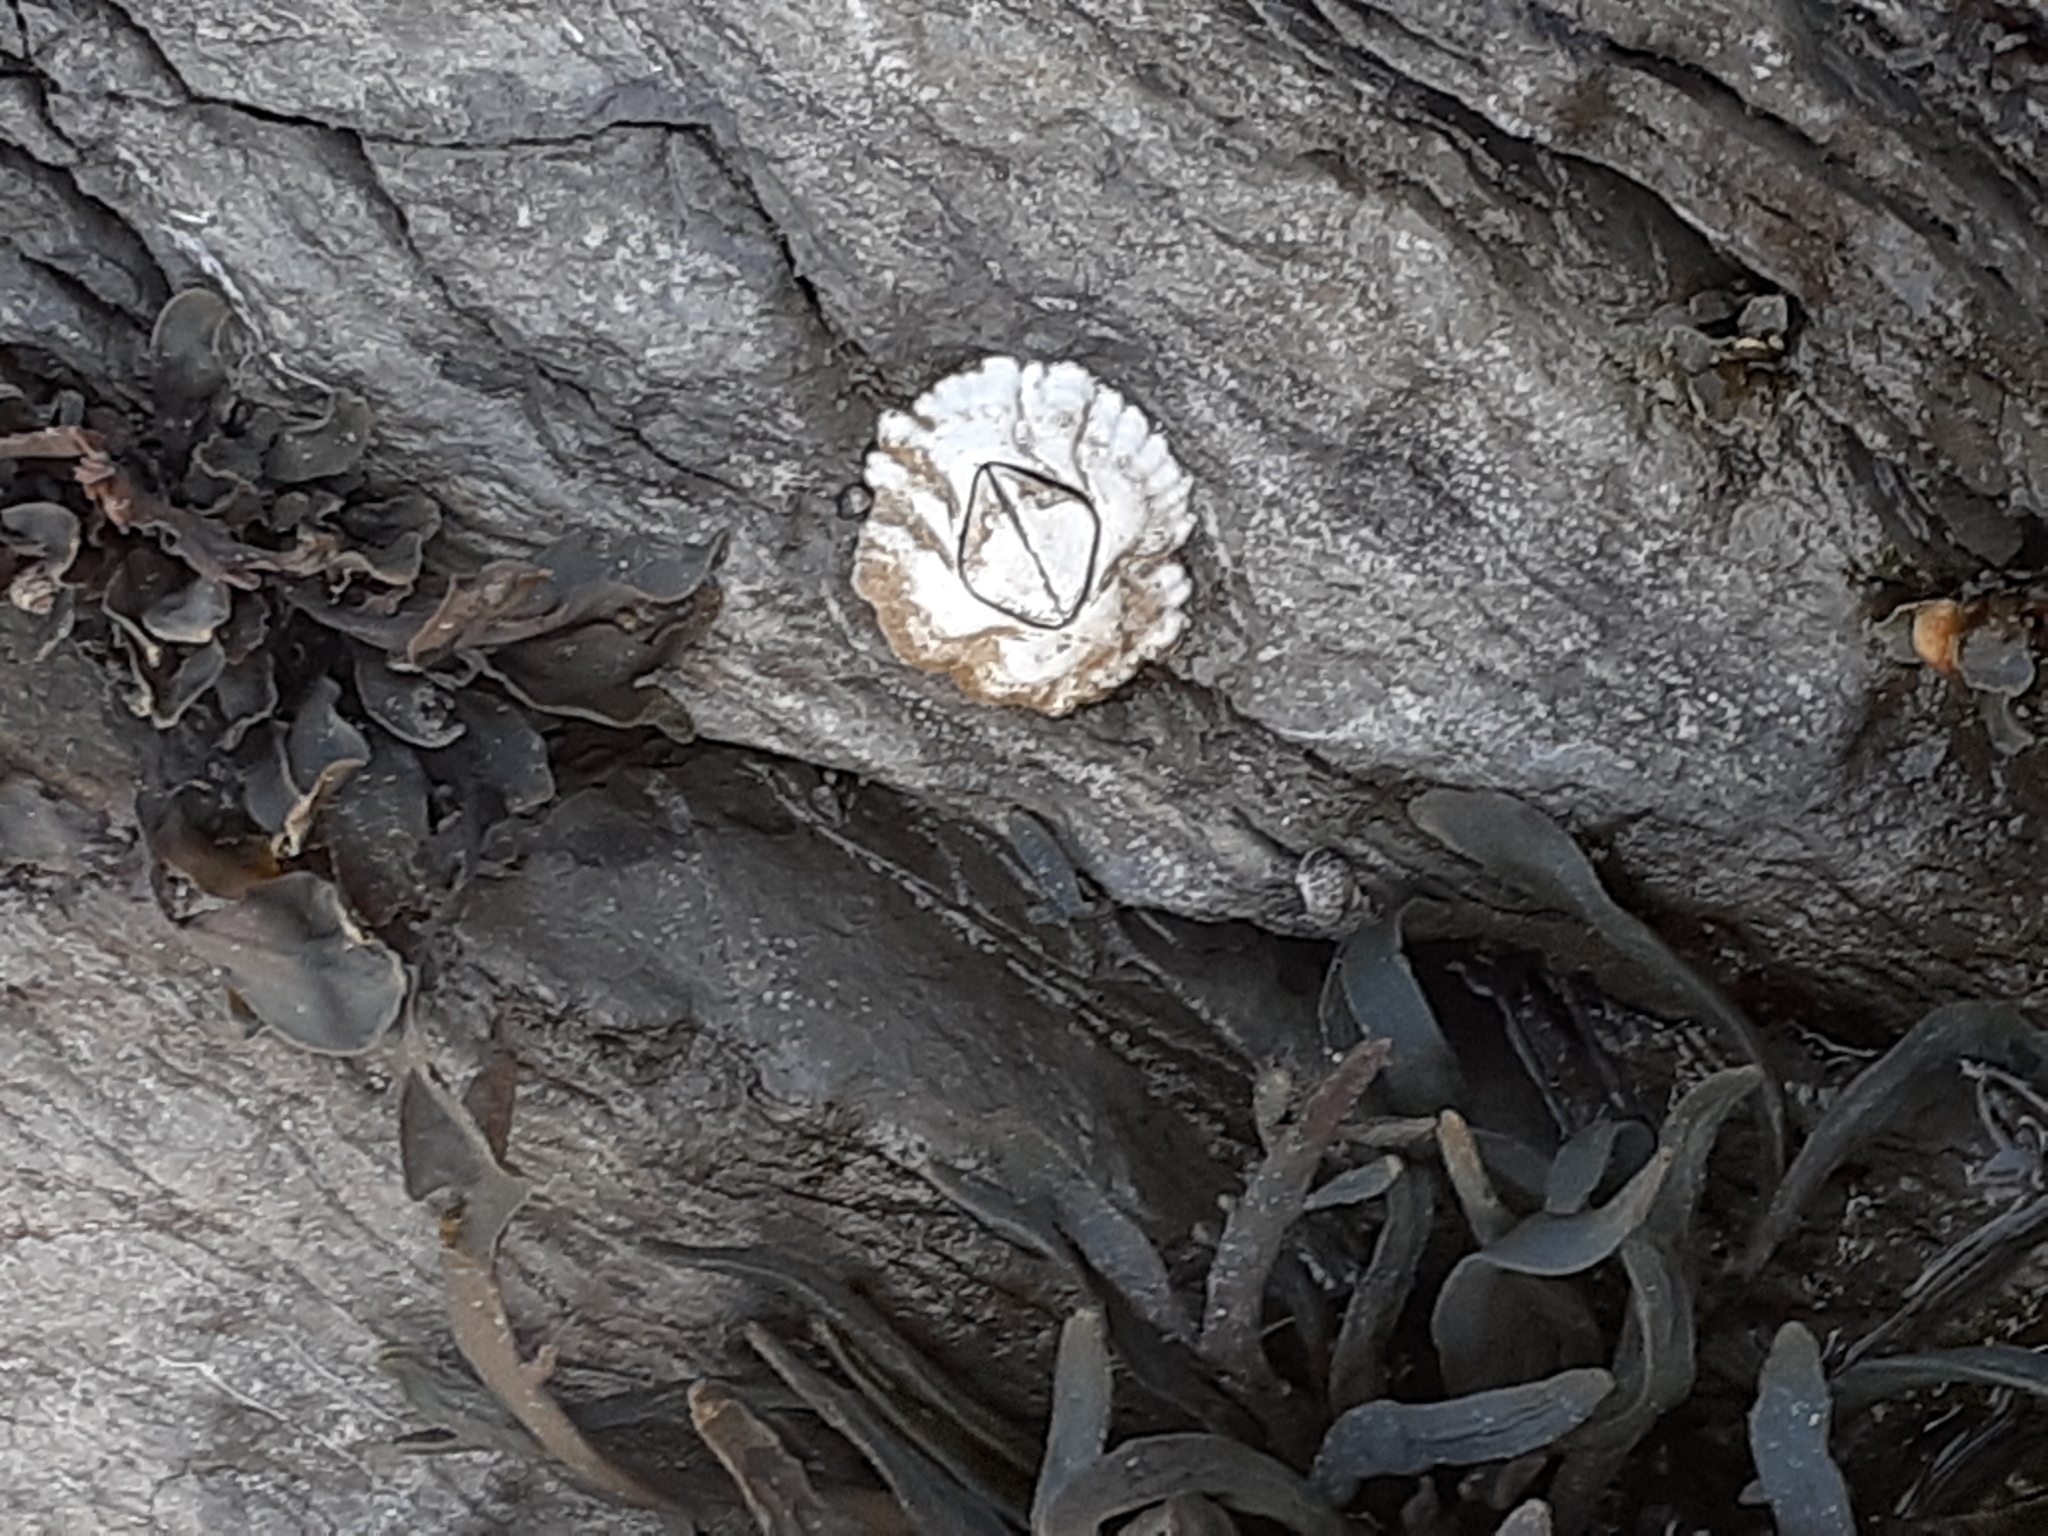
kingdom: Animalia
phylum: Arthropoda
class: Maxillopoda
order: Sessilia
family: Archaeobalanidae
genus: Semibalanus
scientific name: Semibalanus balanoides
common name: Acorn barnacle
